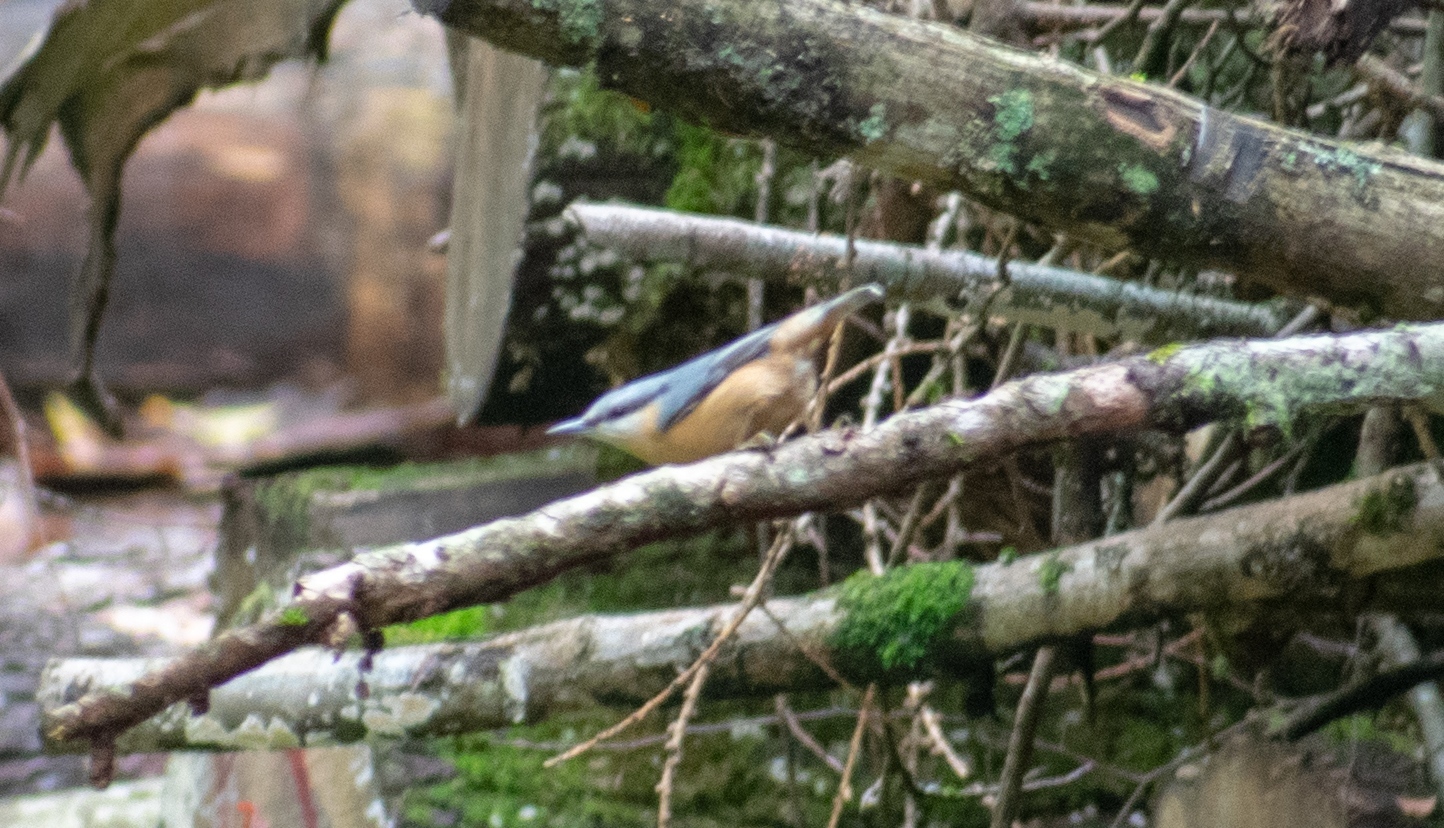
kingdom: Animalia
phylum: Chordata
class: Aves
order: Passeriformes
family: Sittidae
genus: Sitta
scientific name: Sitta europaea
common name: Eurasian nuthatch
